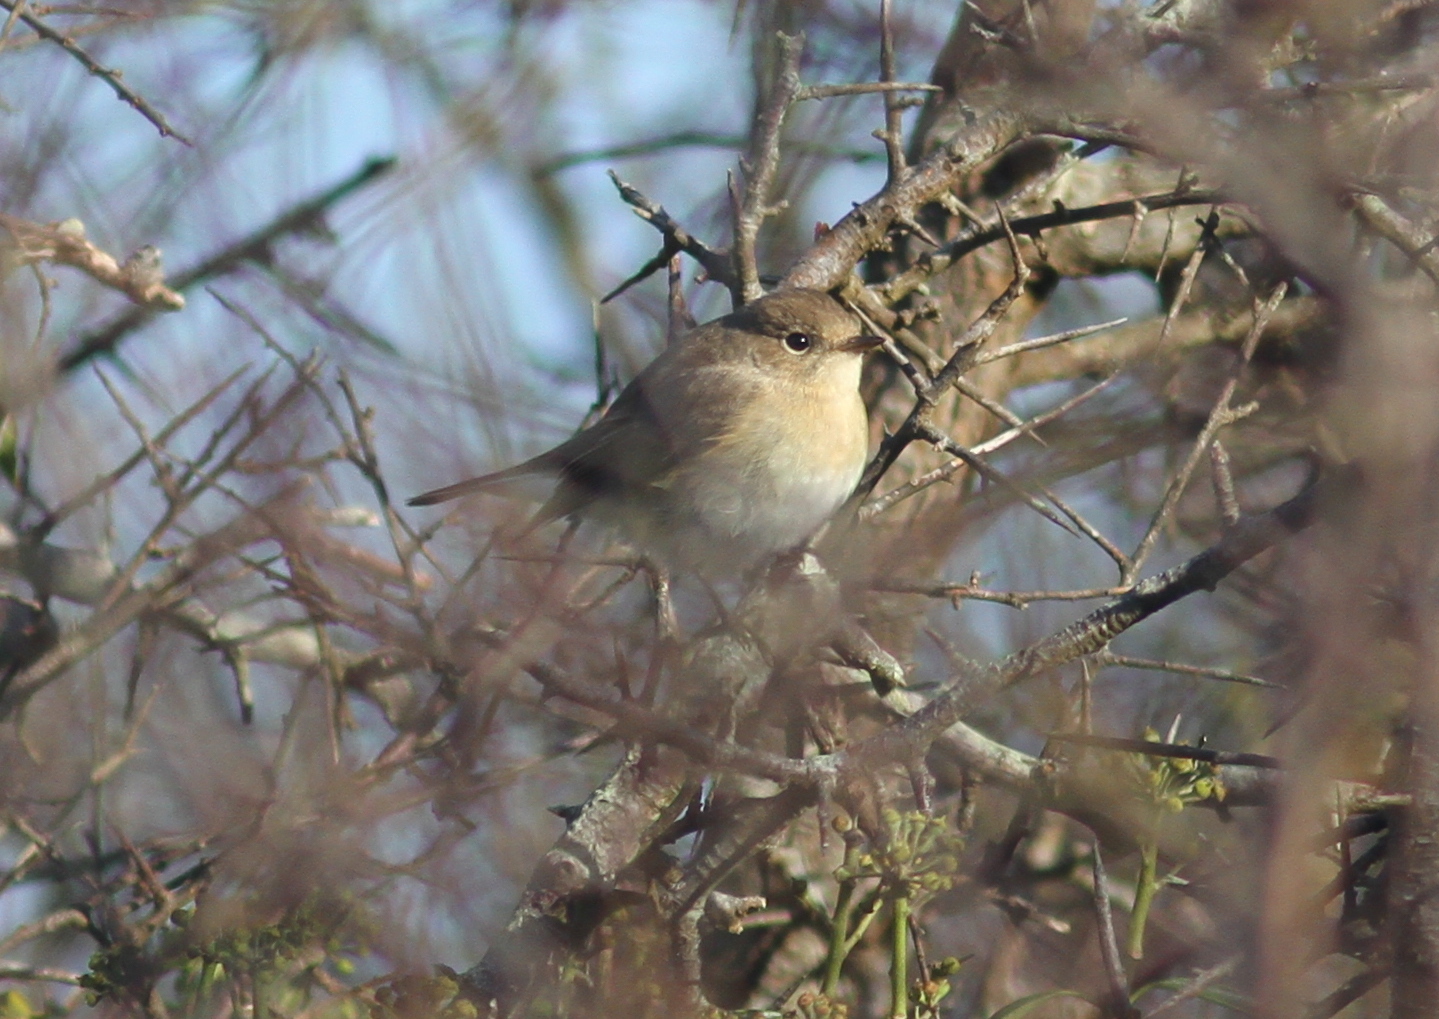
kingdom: Animalia
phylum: Chordata
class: Aves
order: Passeriformes
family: Muscicapidae
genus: Ficedula
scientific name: Ficedula parva
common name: Red-breasted flycatcher
